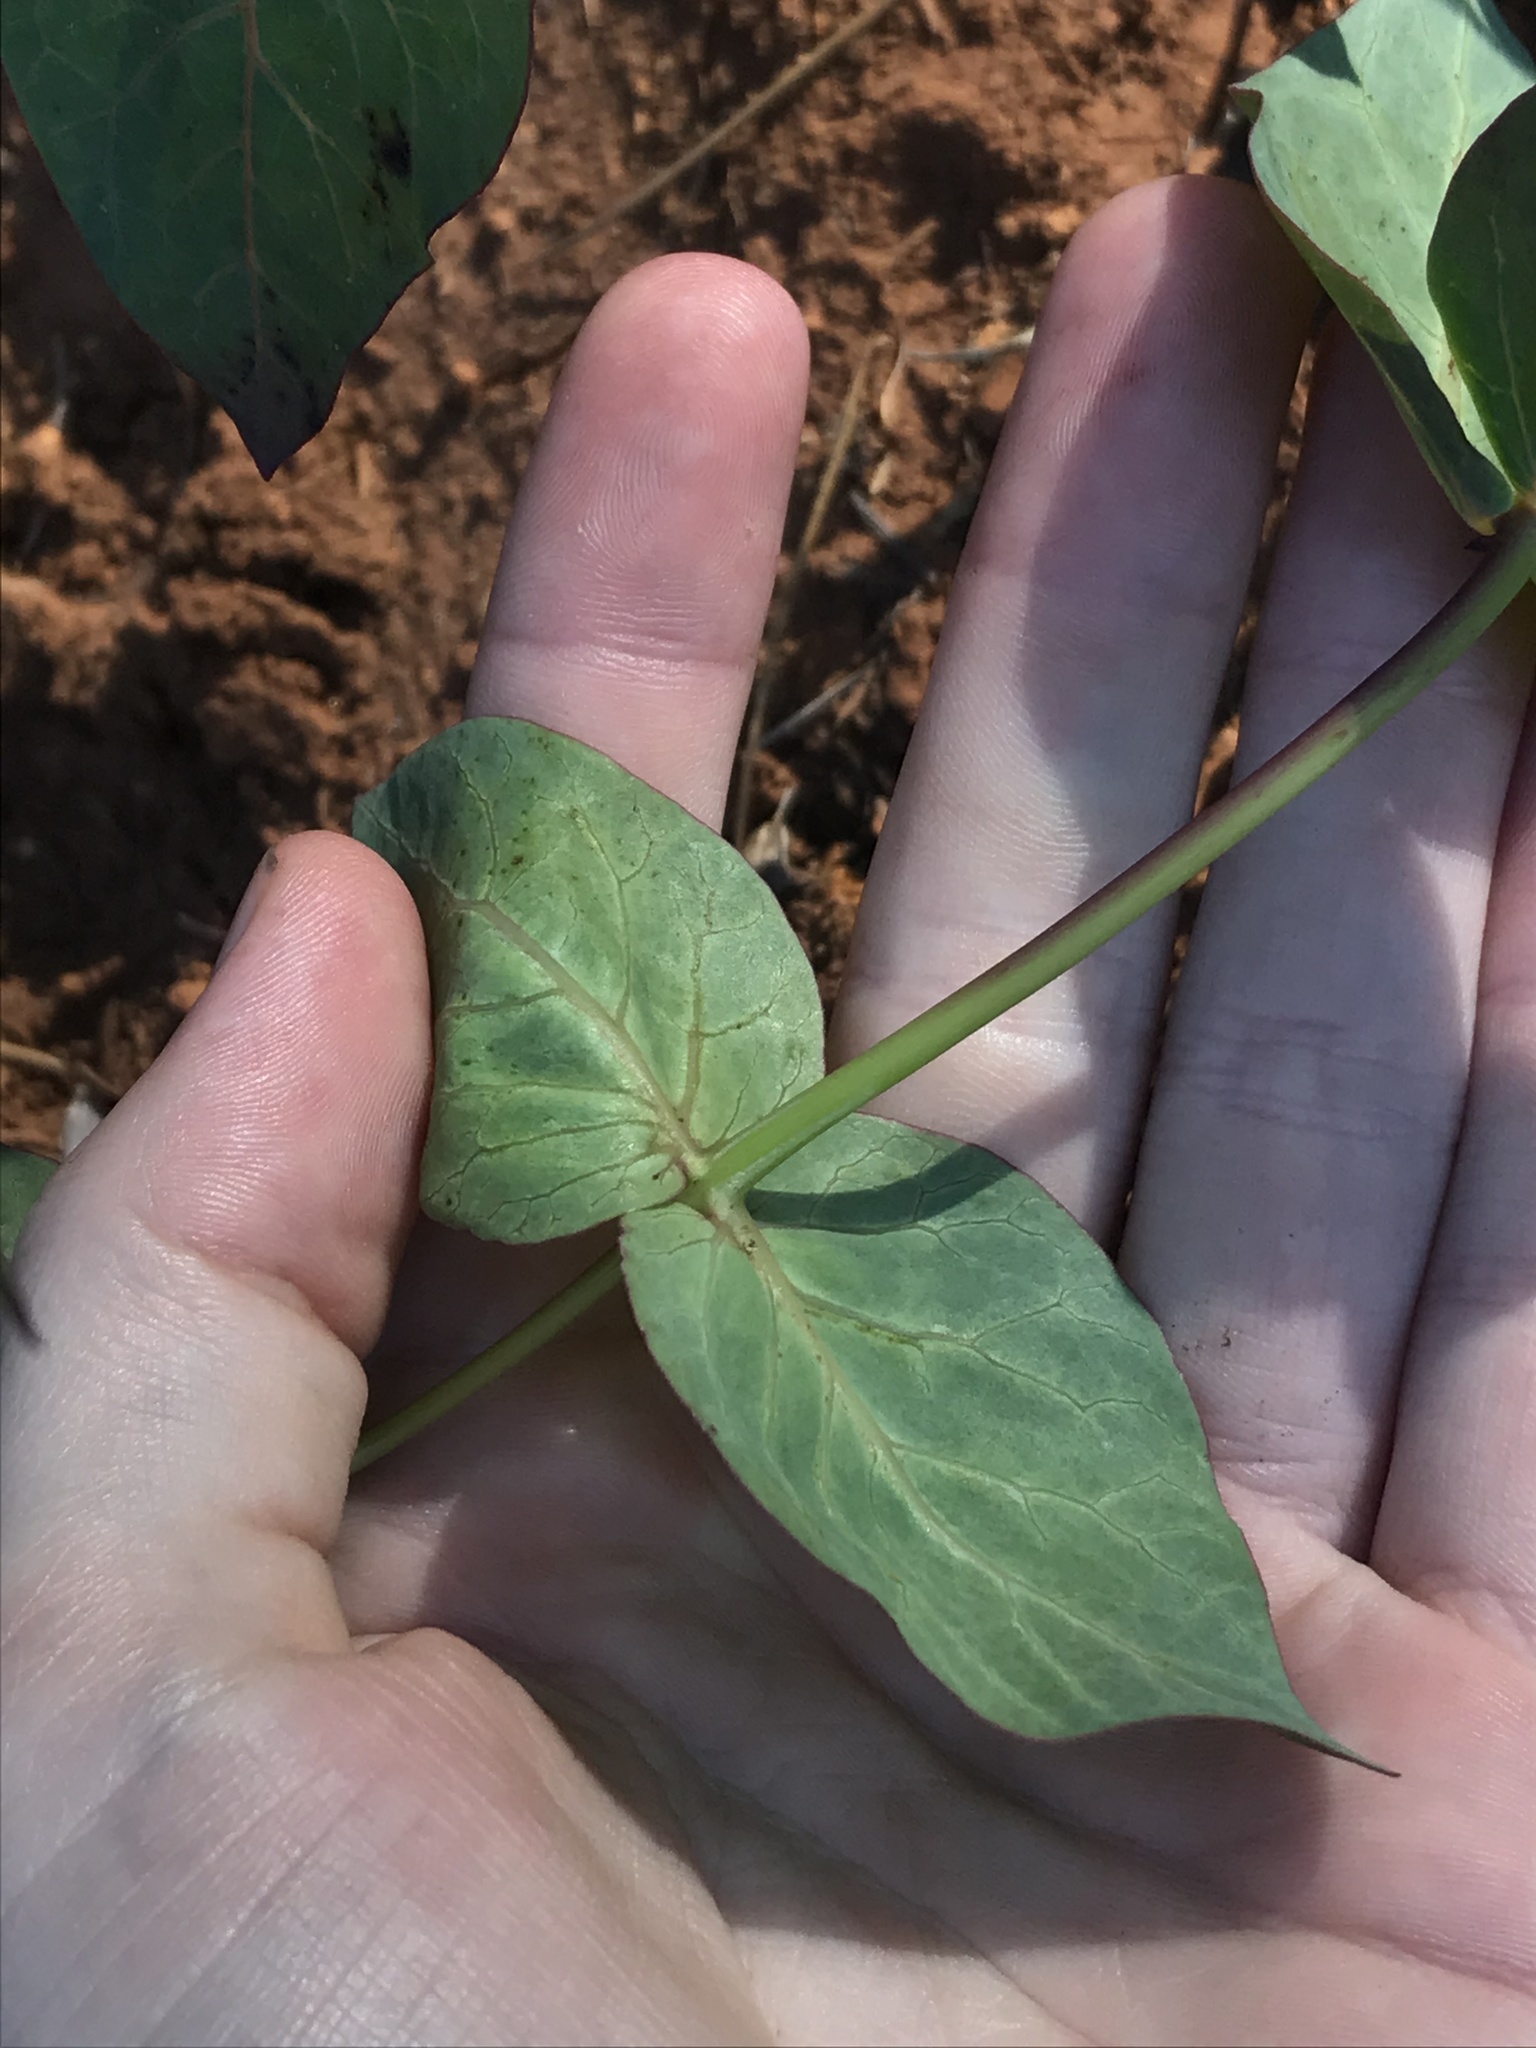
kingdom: Plantae
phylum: Tracheophyta
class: Magnoliopsida
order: Gentianales
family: Apocynaceae
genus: Asclepias
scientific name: Asclepias cordifolia
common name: Purple milkweed
